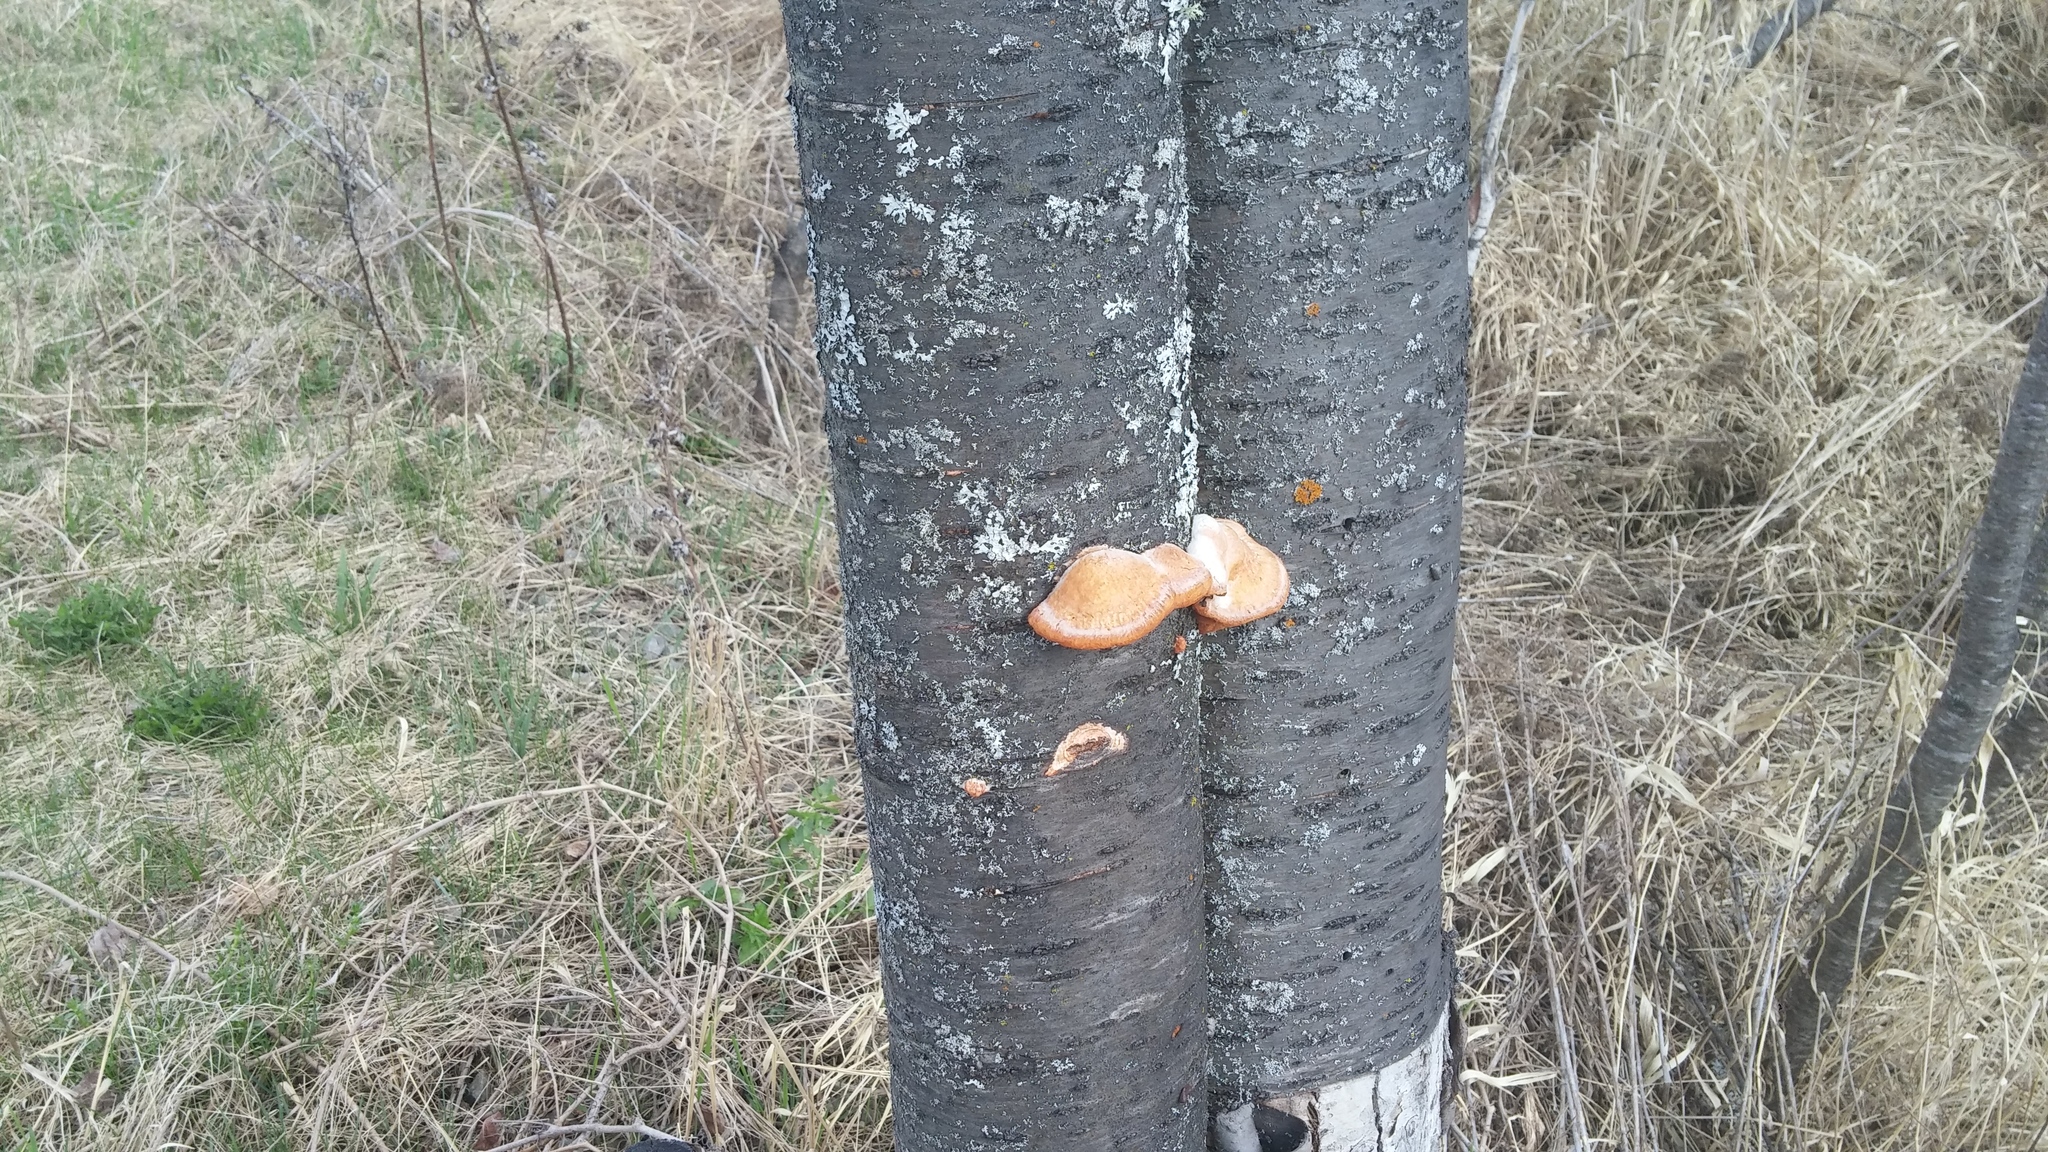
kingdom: Fungi
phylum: Basidiomycota
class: Agaricomycetes
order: Polyporales
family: Polyporaceae
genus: Trametes
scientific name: Trametes cinnabarina
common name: Northern cinnabar polypore
